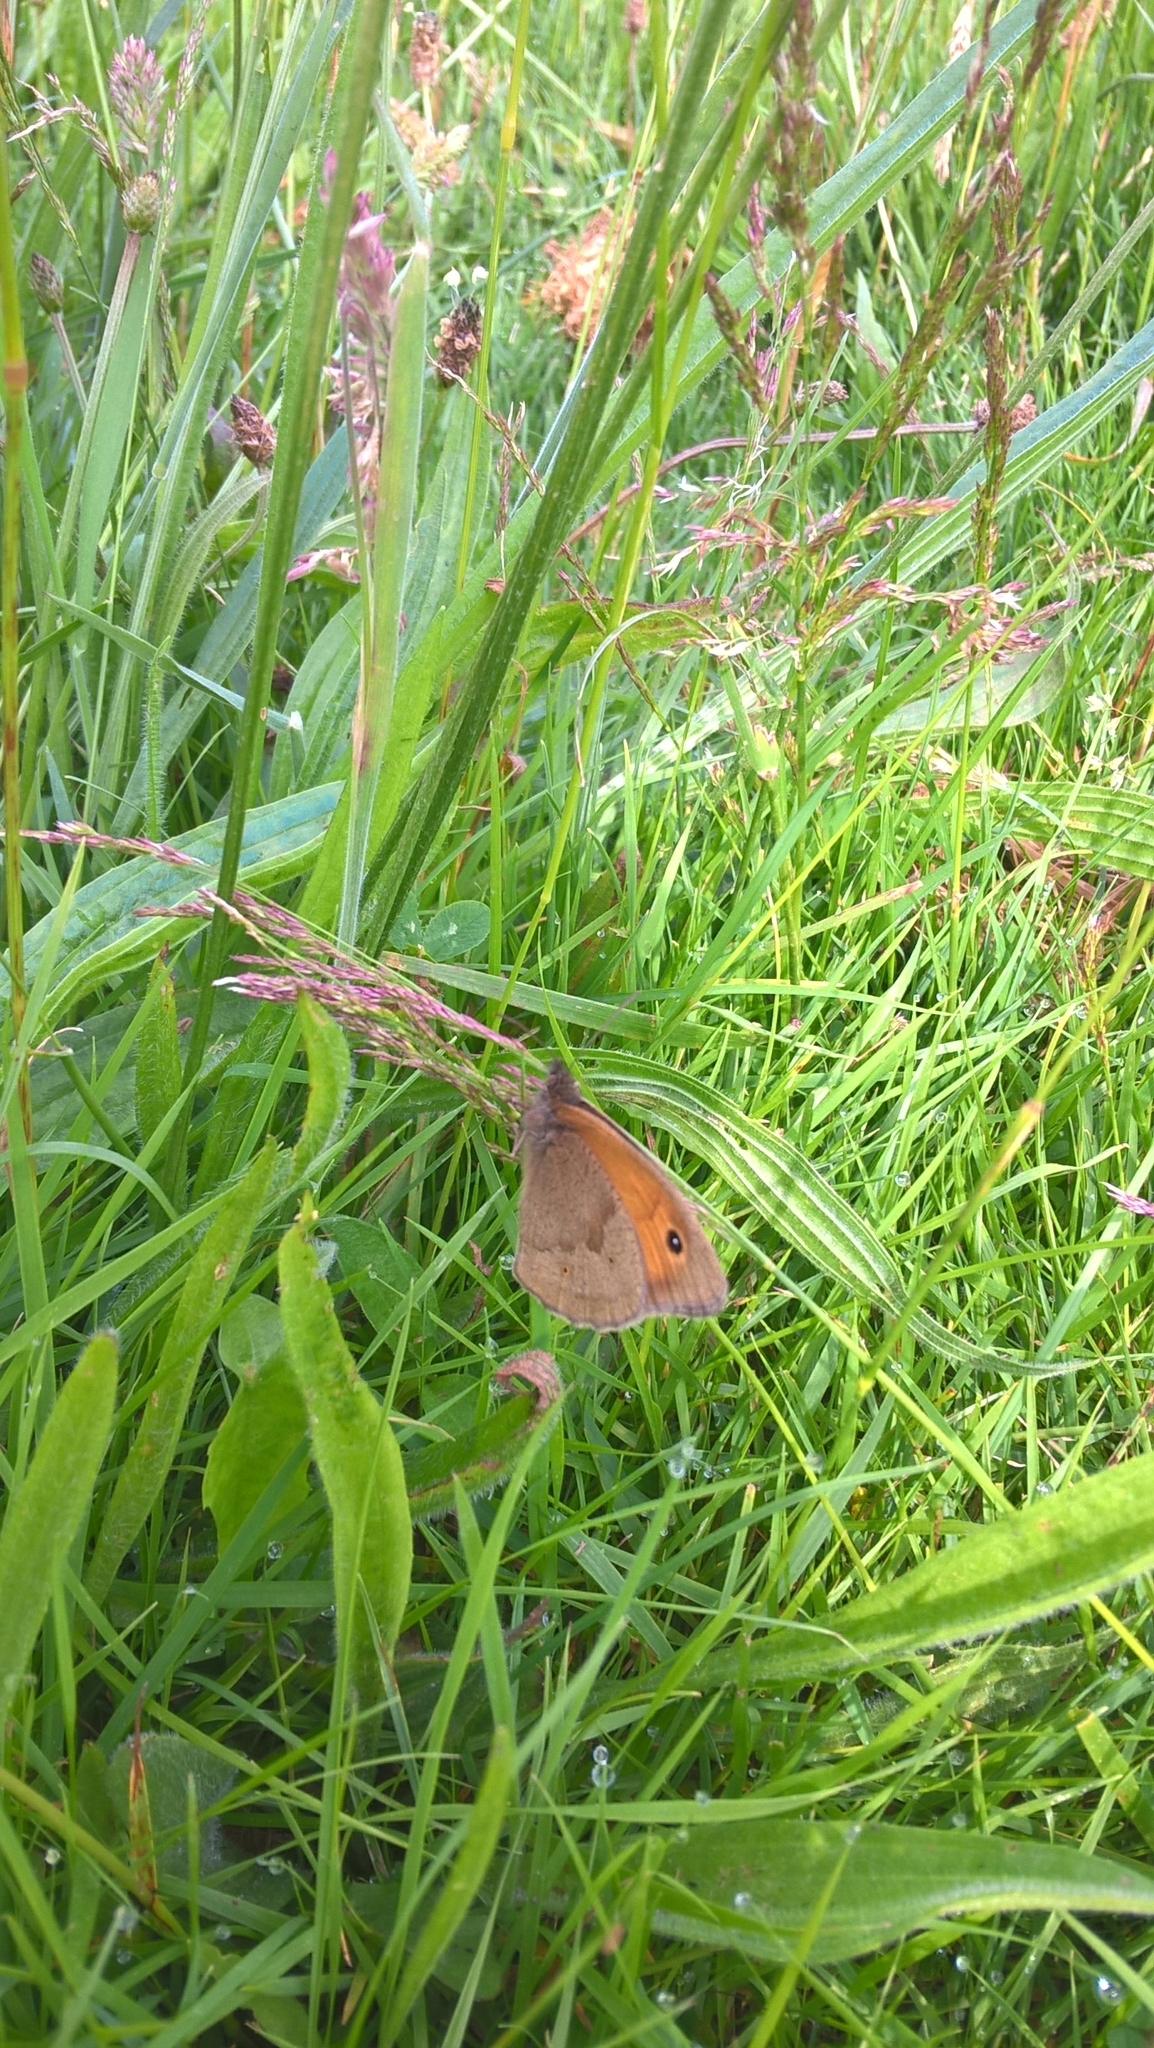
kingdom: Animalia
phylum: Arthropoda
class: Insecta
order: Lepidoptera
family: Nymphalidae
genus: Maniola
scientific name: Maniola jurtina
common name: Meadow brown
